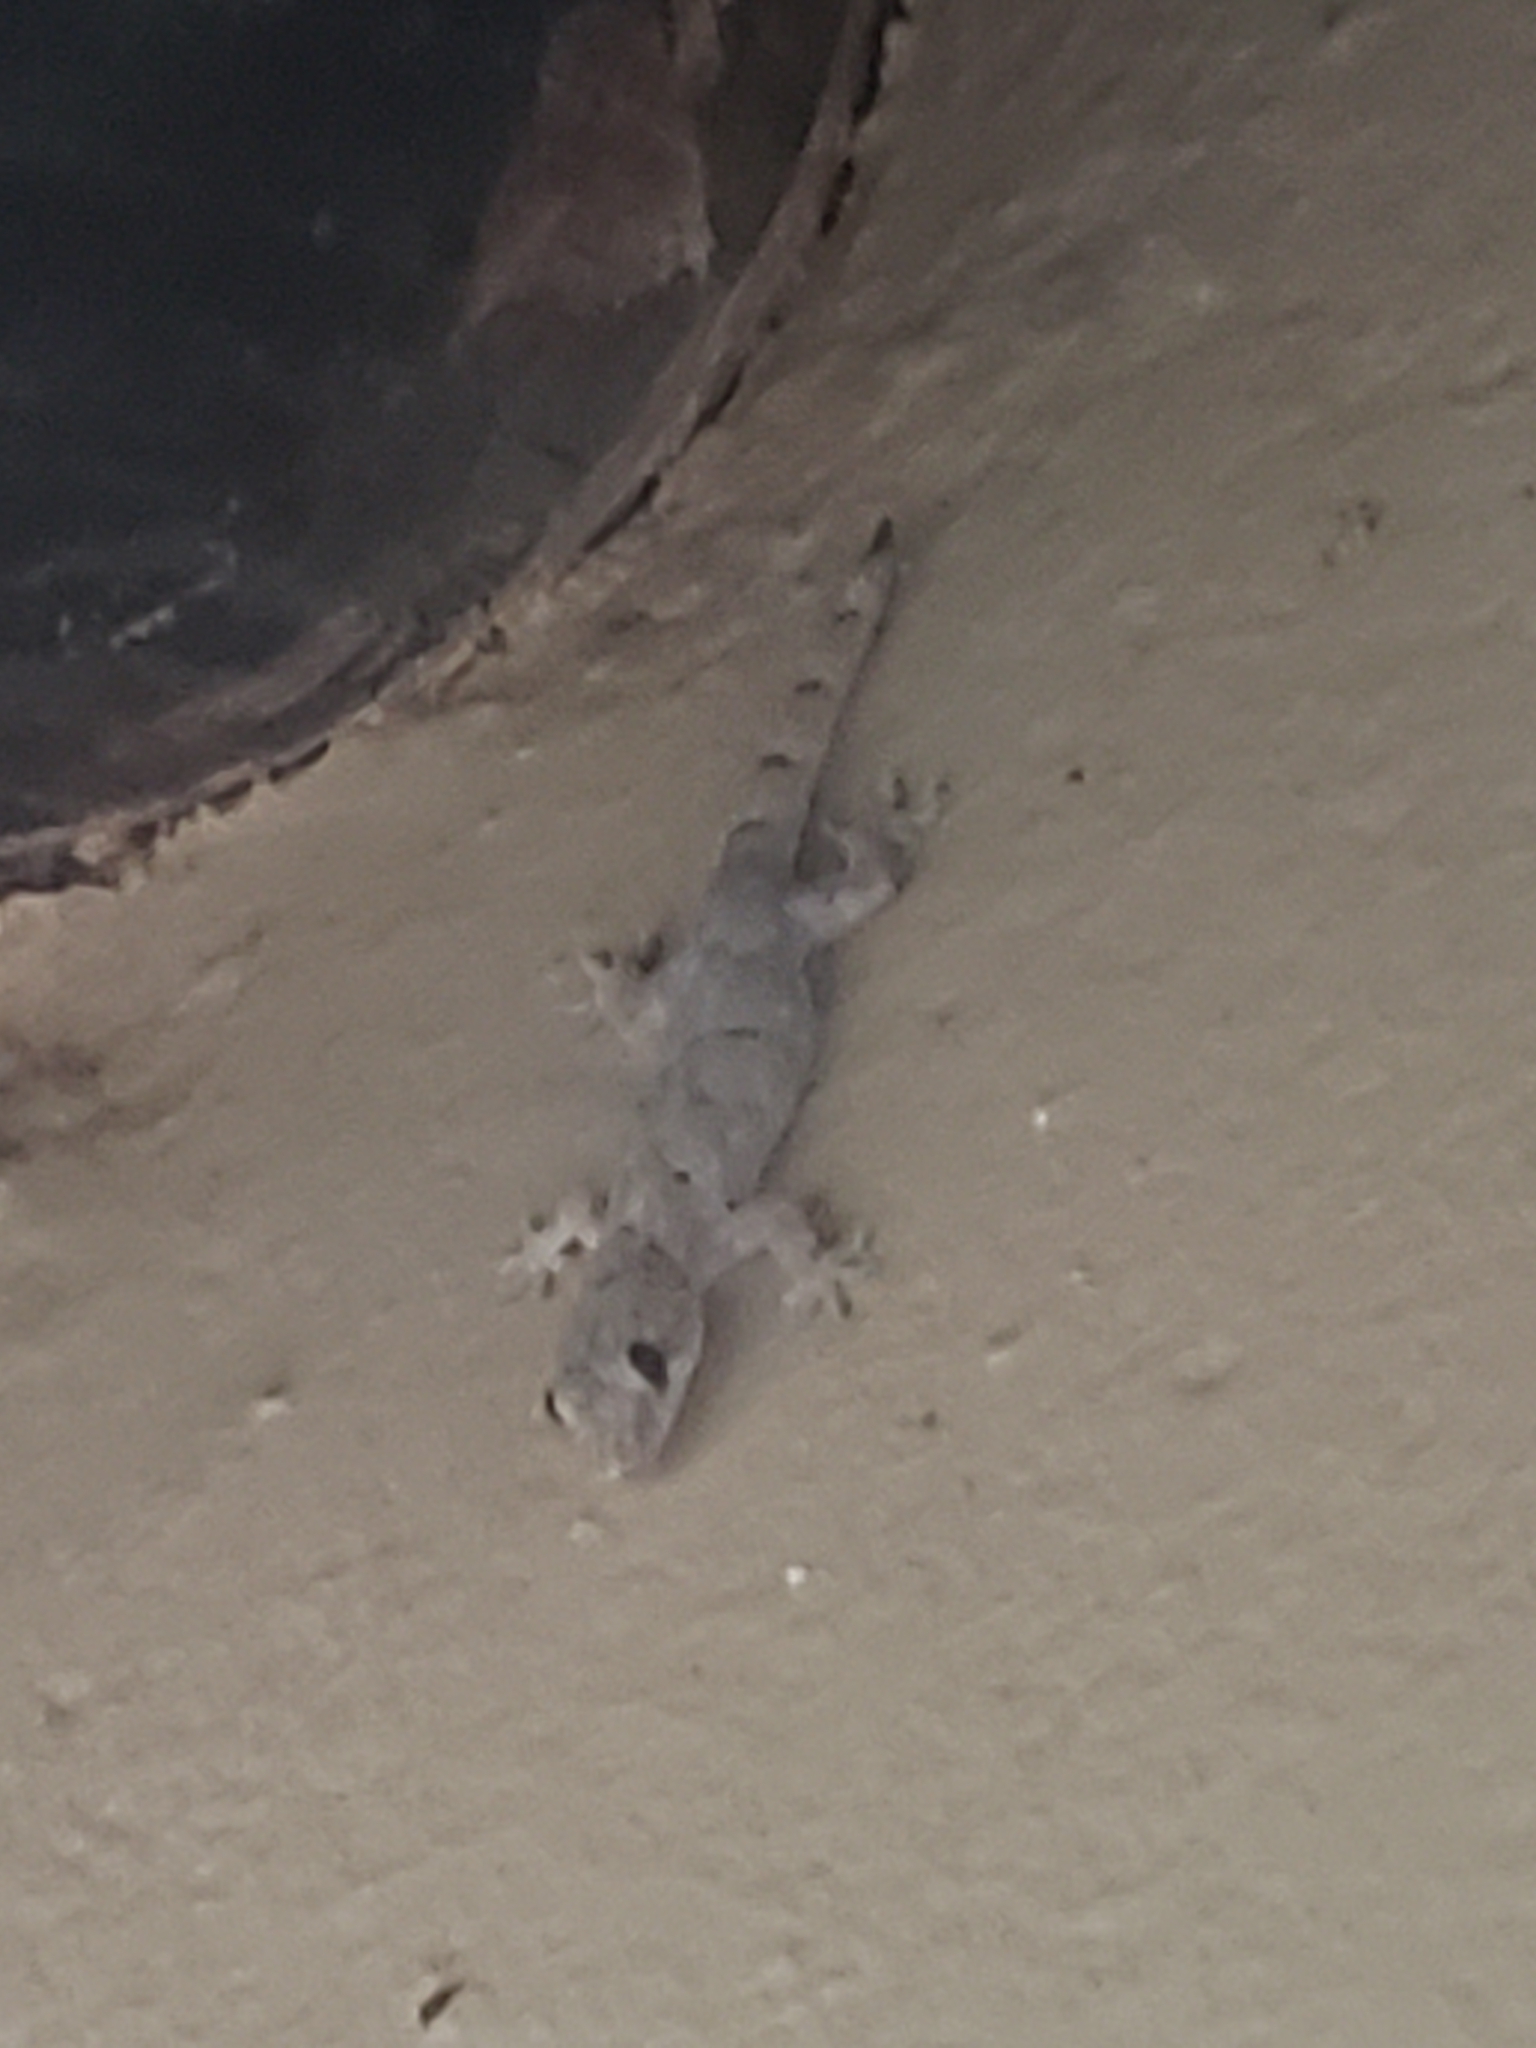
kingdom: Animalia
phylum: Chordata
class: Squamata
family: Gekkonidae
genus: Hemidactylus
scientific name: Hemidactylus mabouia
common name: House gecko
